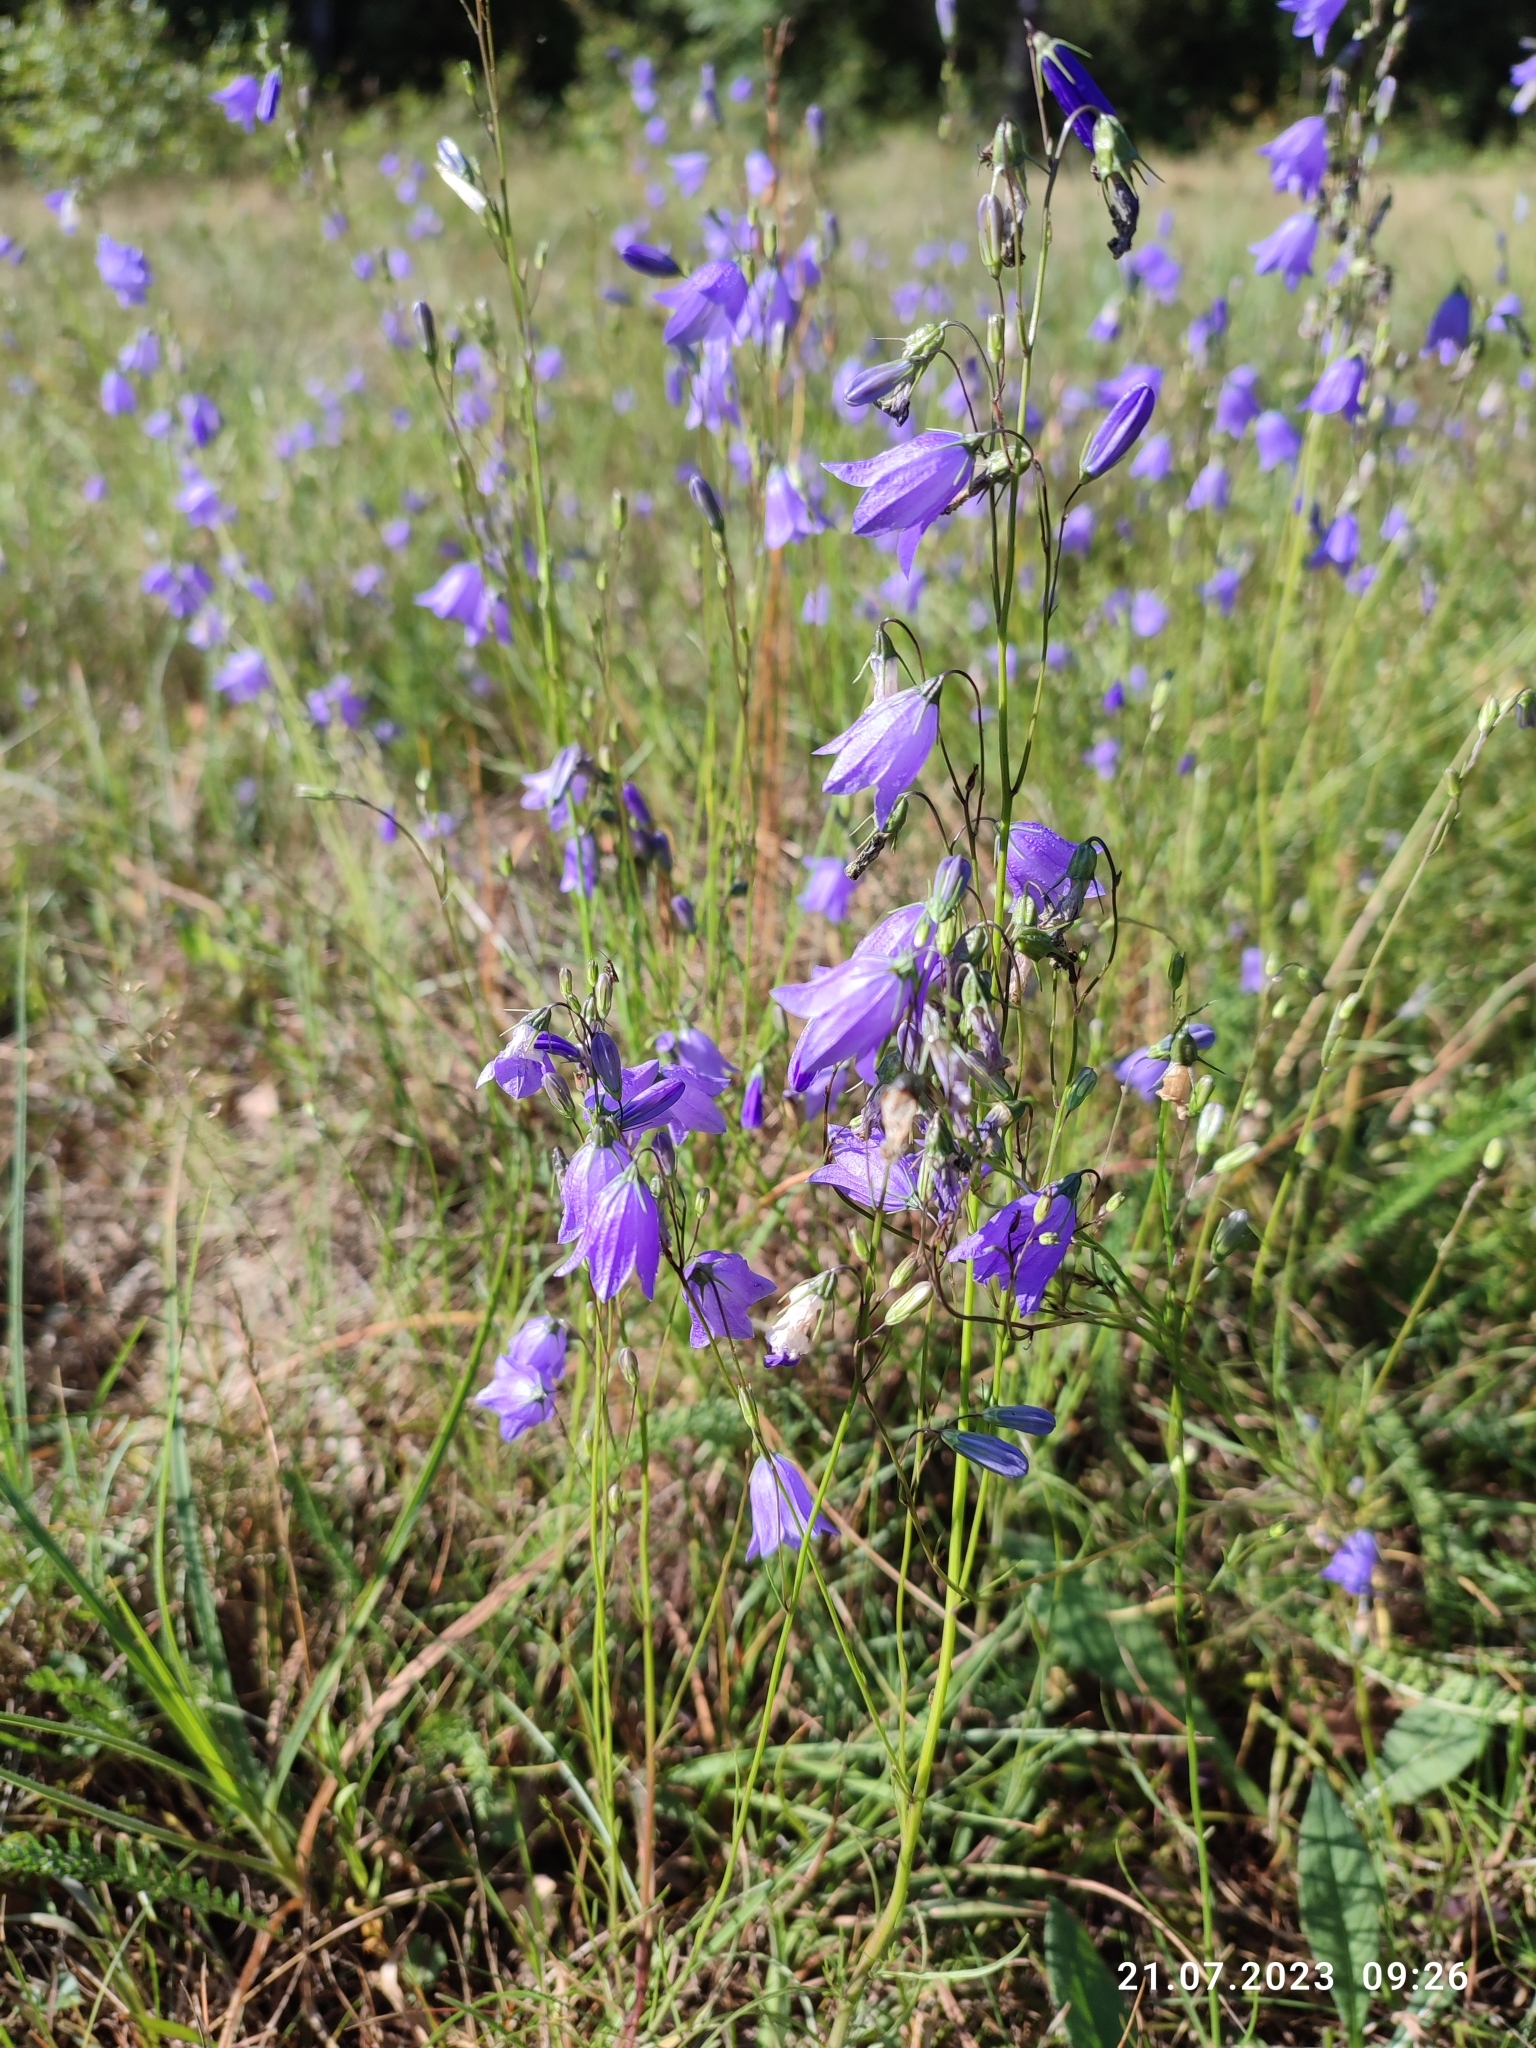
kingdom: Plantae
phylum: Tracheophyta
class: Magnoliopsida
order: Asterales
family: Campanulaceae
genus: Campanula
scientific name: Campanula rotundifolia
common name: Harebell
